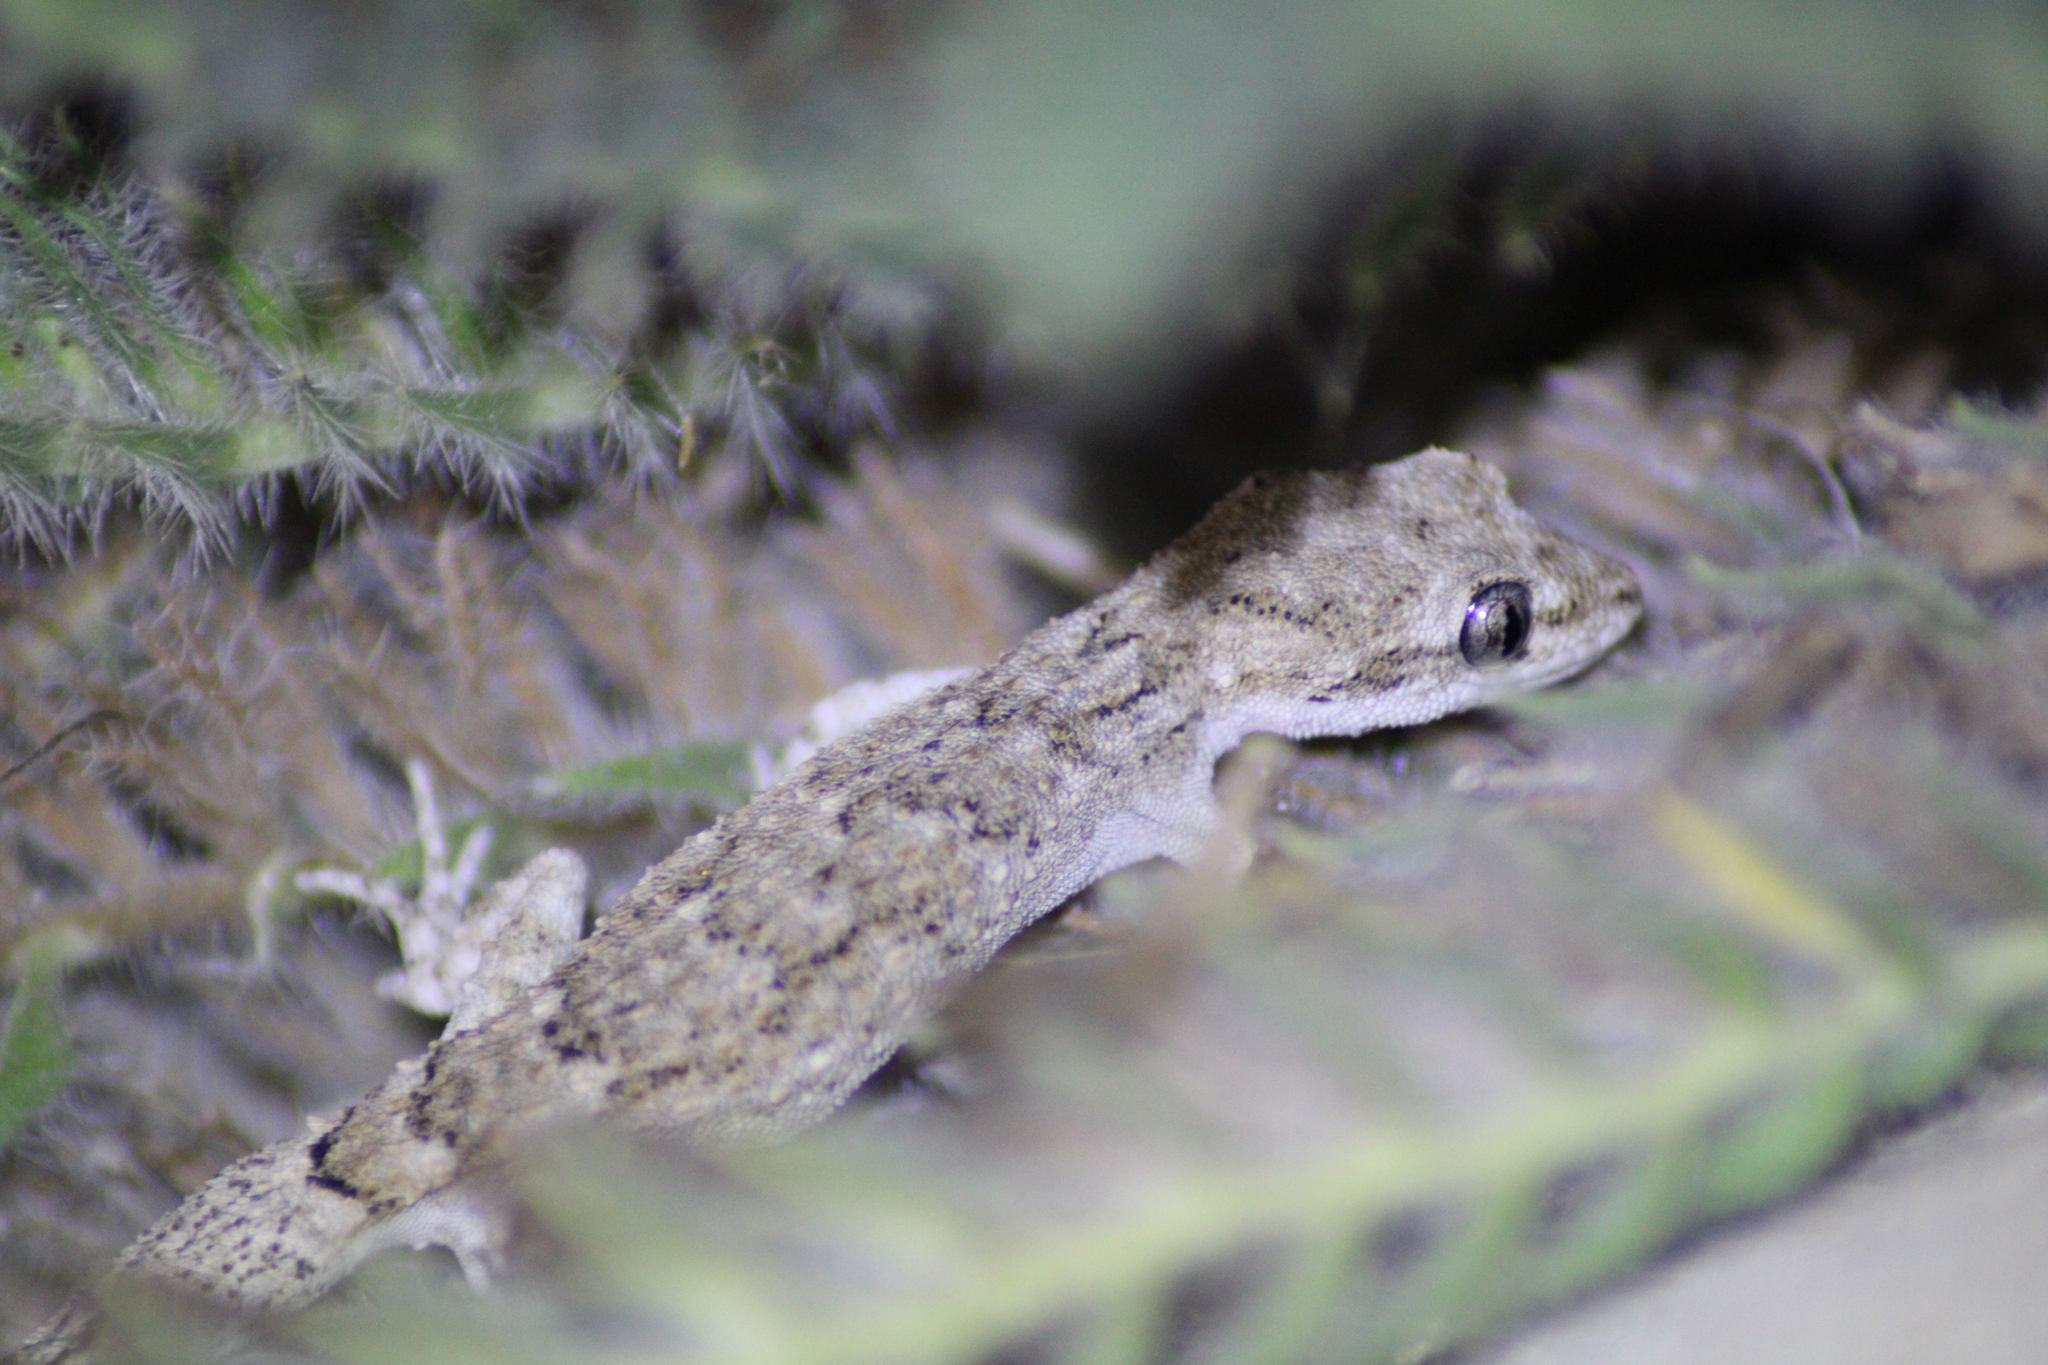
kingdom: Animalia
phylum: Chordata
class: Squamata
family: Gekkonidae
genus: Mediodactylus
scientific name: Mediodactylus orientalis
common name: Mediterranean thin-toed gecko
